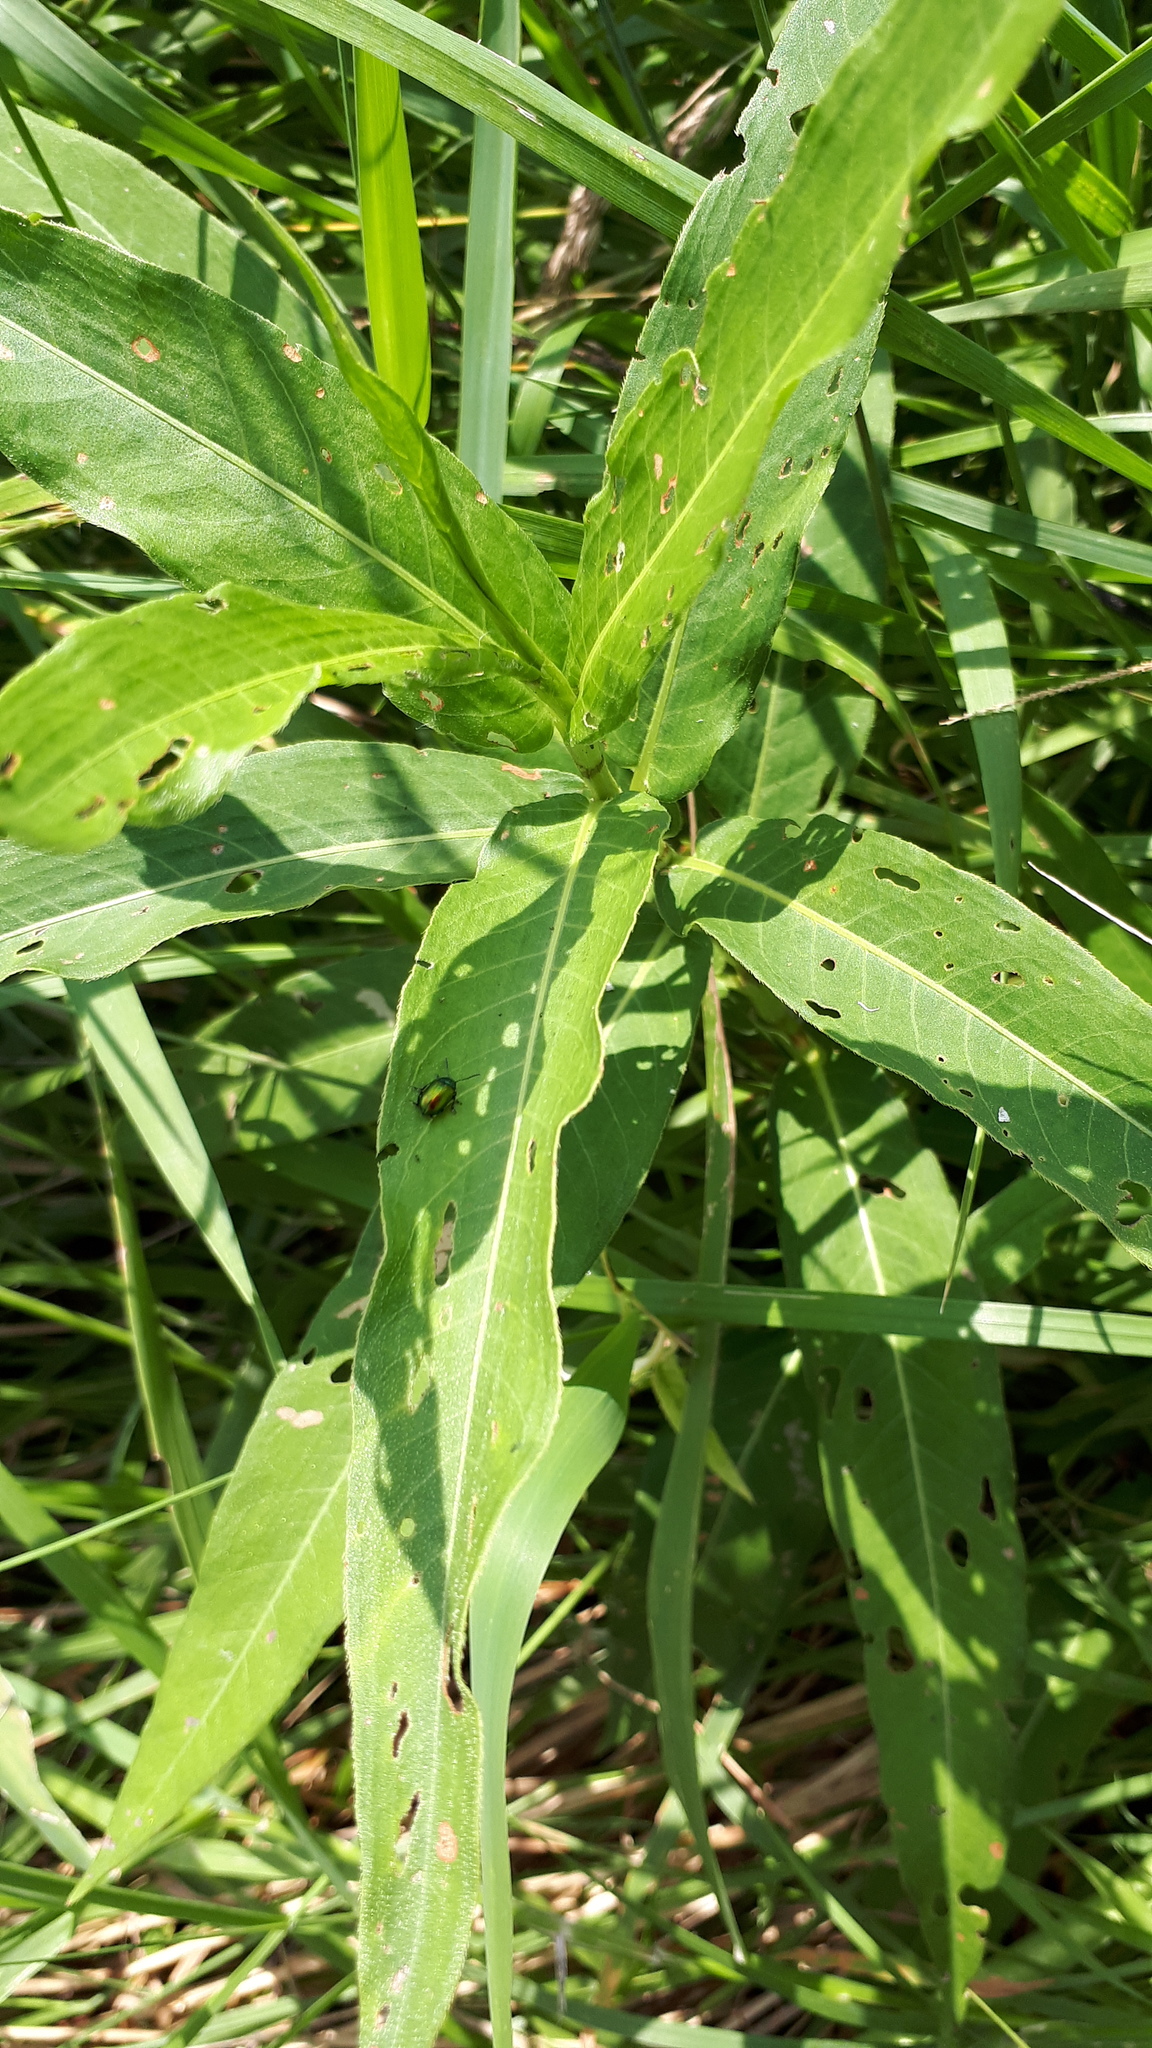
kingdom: Animalia
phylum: Arthropoda
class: Insecta
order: Coleoptera
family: Chrysomelidae
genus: Gastrophysa
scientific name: Gastrophysa viridula
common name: Green dock beetle
